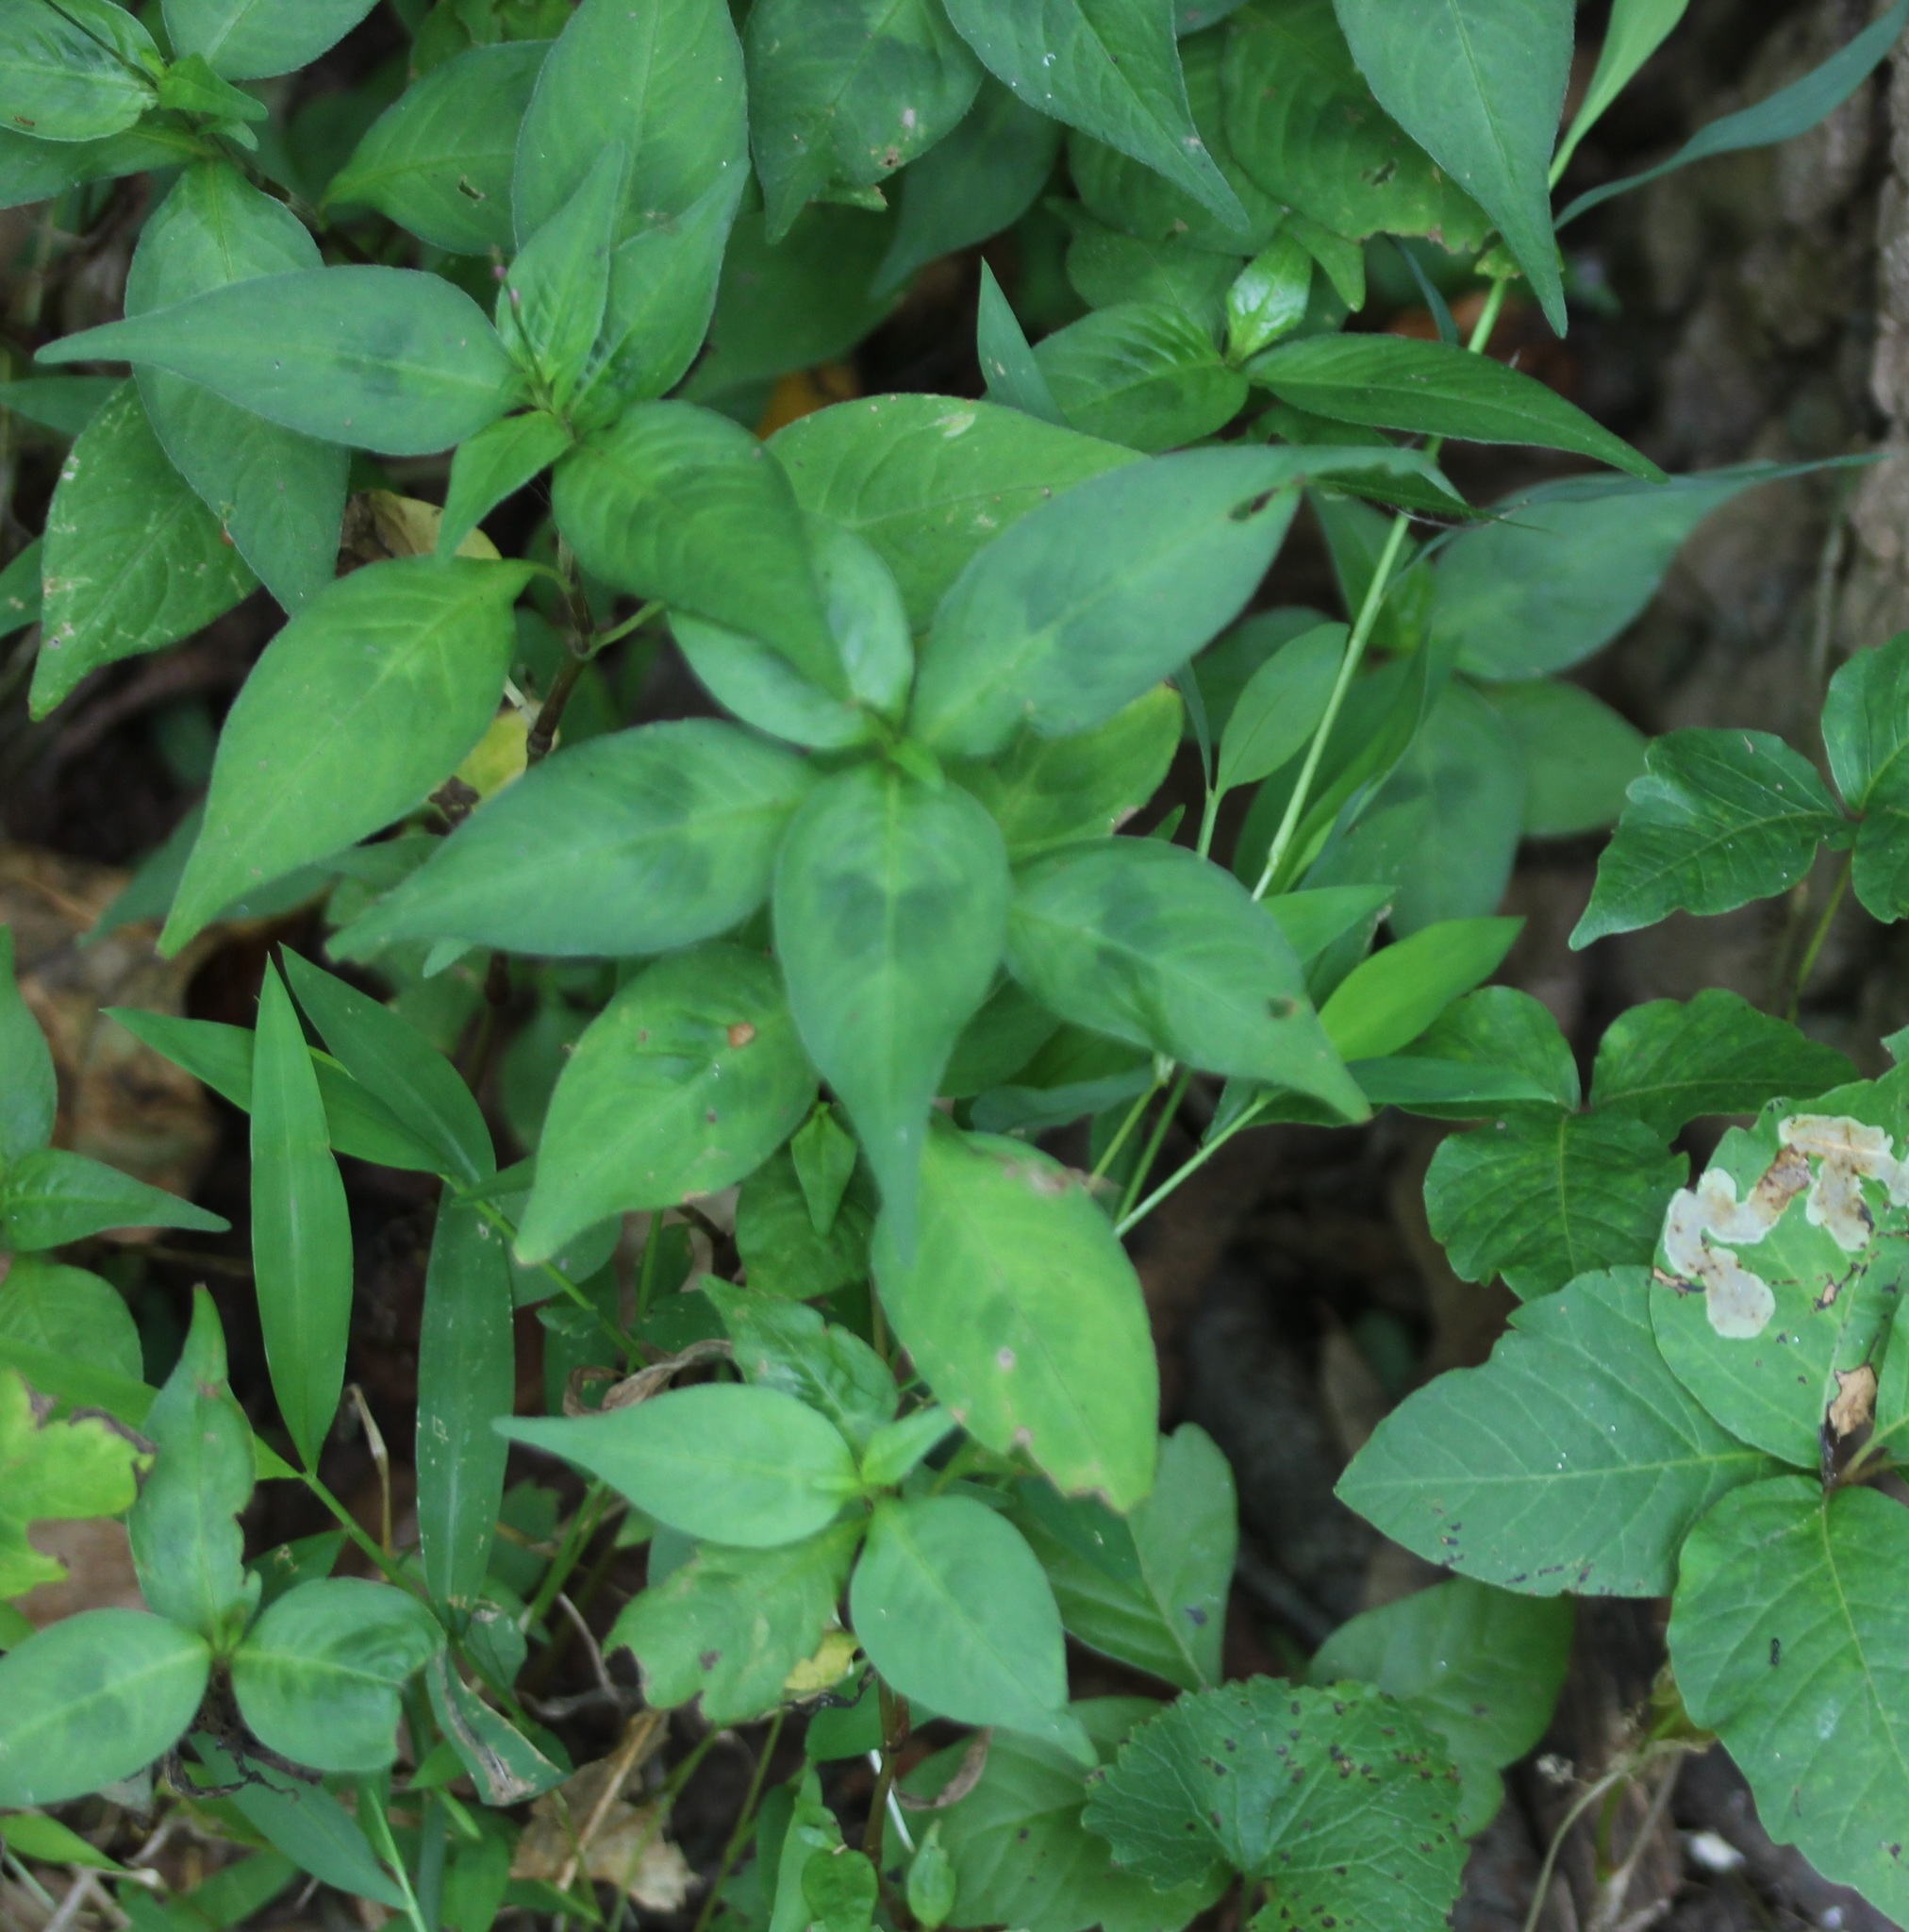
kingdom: Plantae
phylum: Tracheophyta
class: Magnoliopsida
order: Caryophyllales
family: Polygonaceae
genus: Persicaria
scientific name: Persicaria virginiana
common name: Jumpseed
